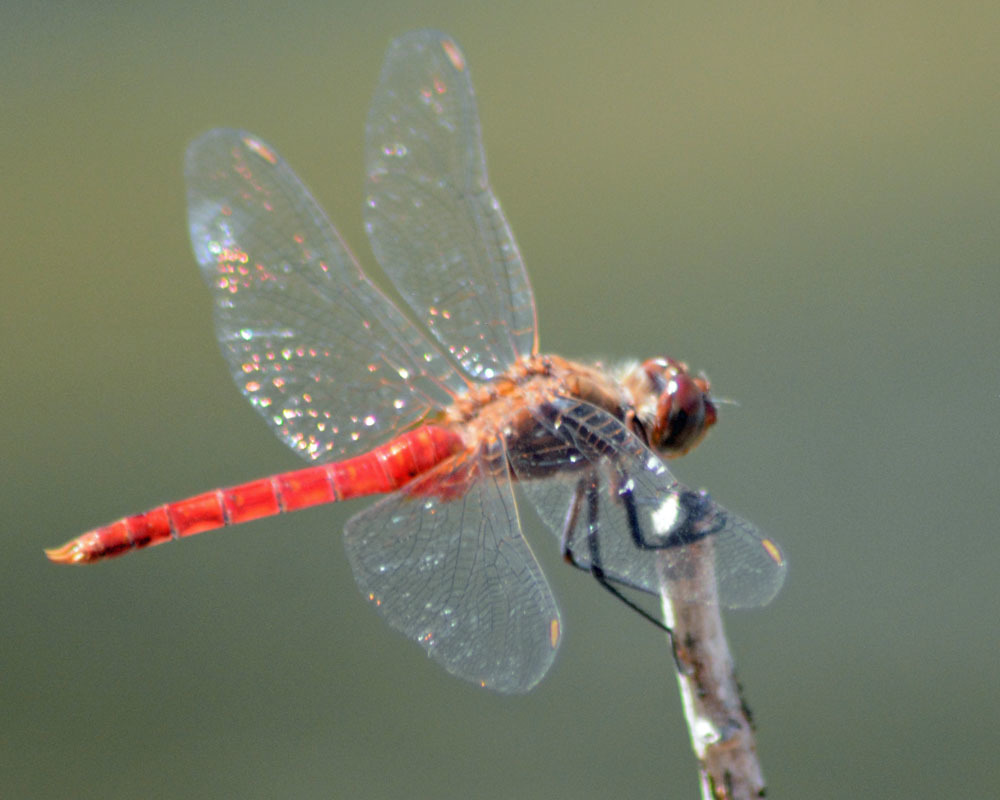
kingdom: Animalia
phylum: Arthropoda
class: Insecta
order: Odonata
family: Libellulidae
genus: Brachymesia
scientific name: Brachymesia furcata
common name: Red-taled pennant
